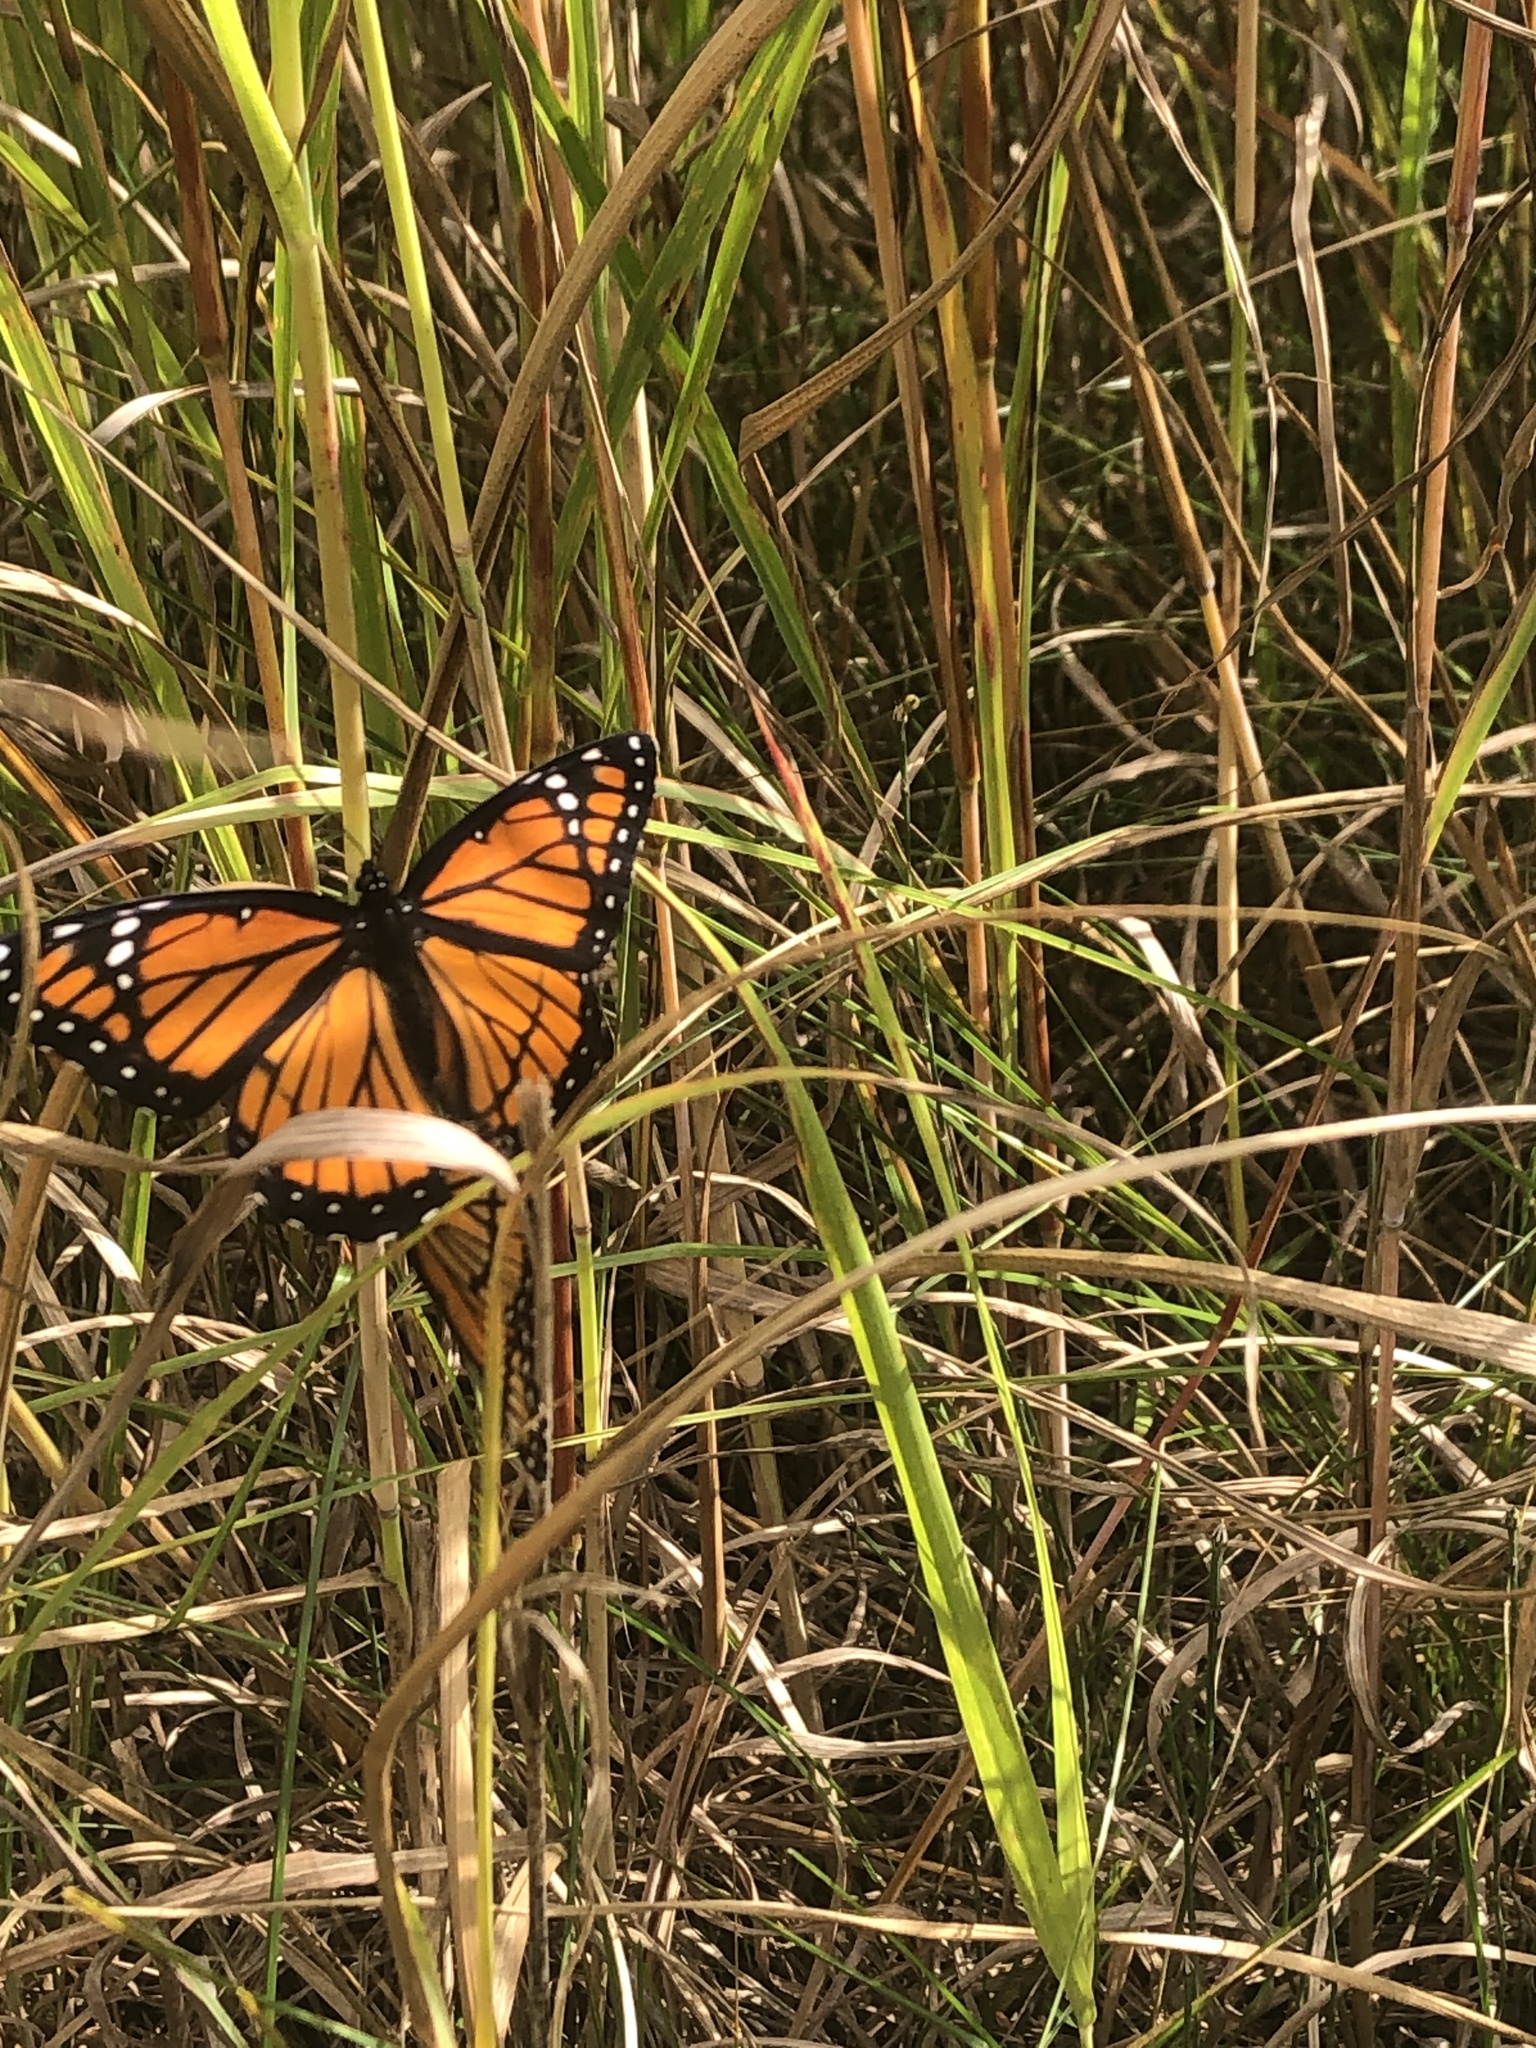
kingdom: Animalia
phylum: Arthropoda
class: Insecta
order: Lepidoptera
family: Nymphalidae
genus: Limenitis
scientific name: Limenitis archippus
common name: Viceroy
